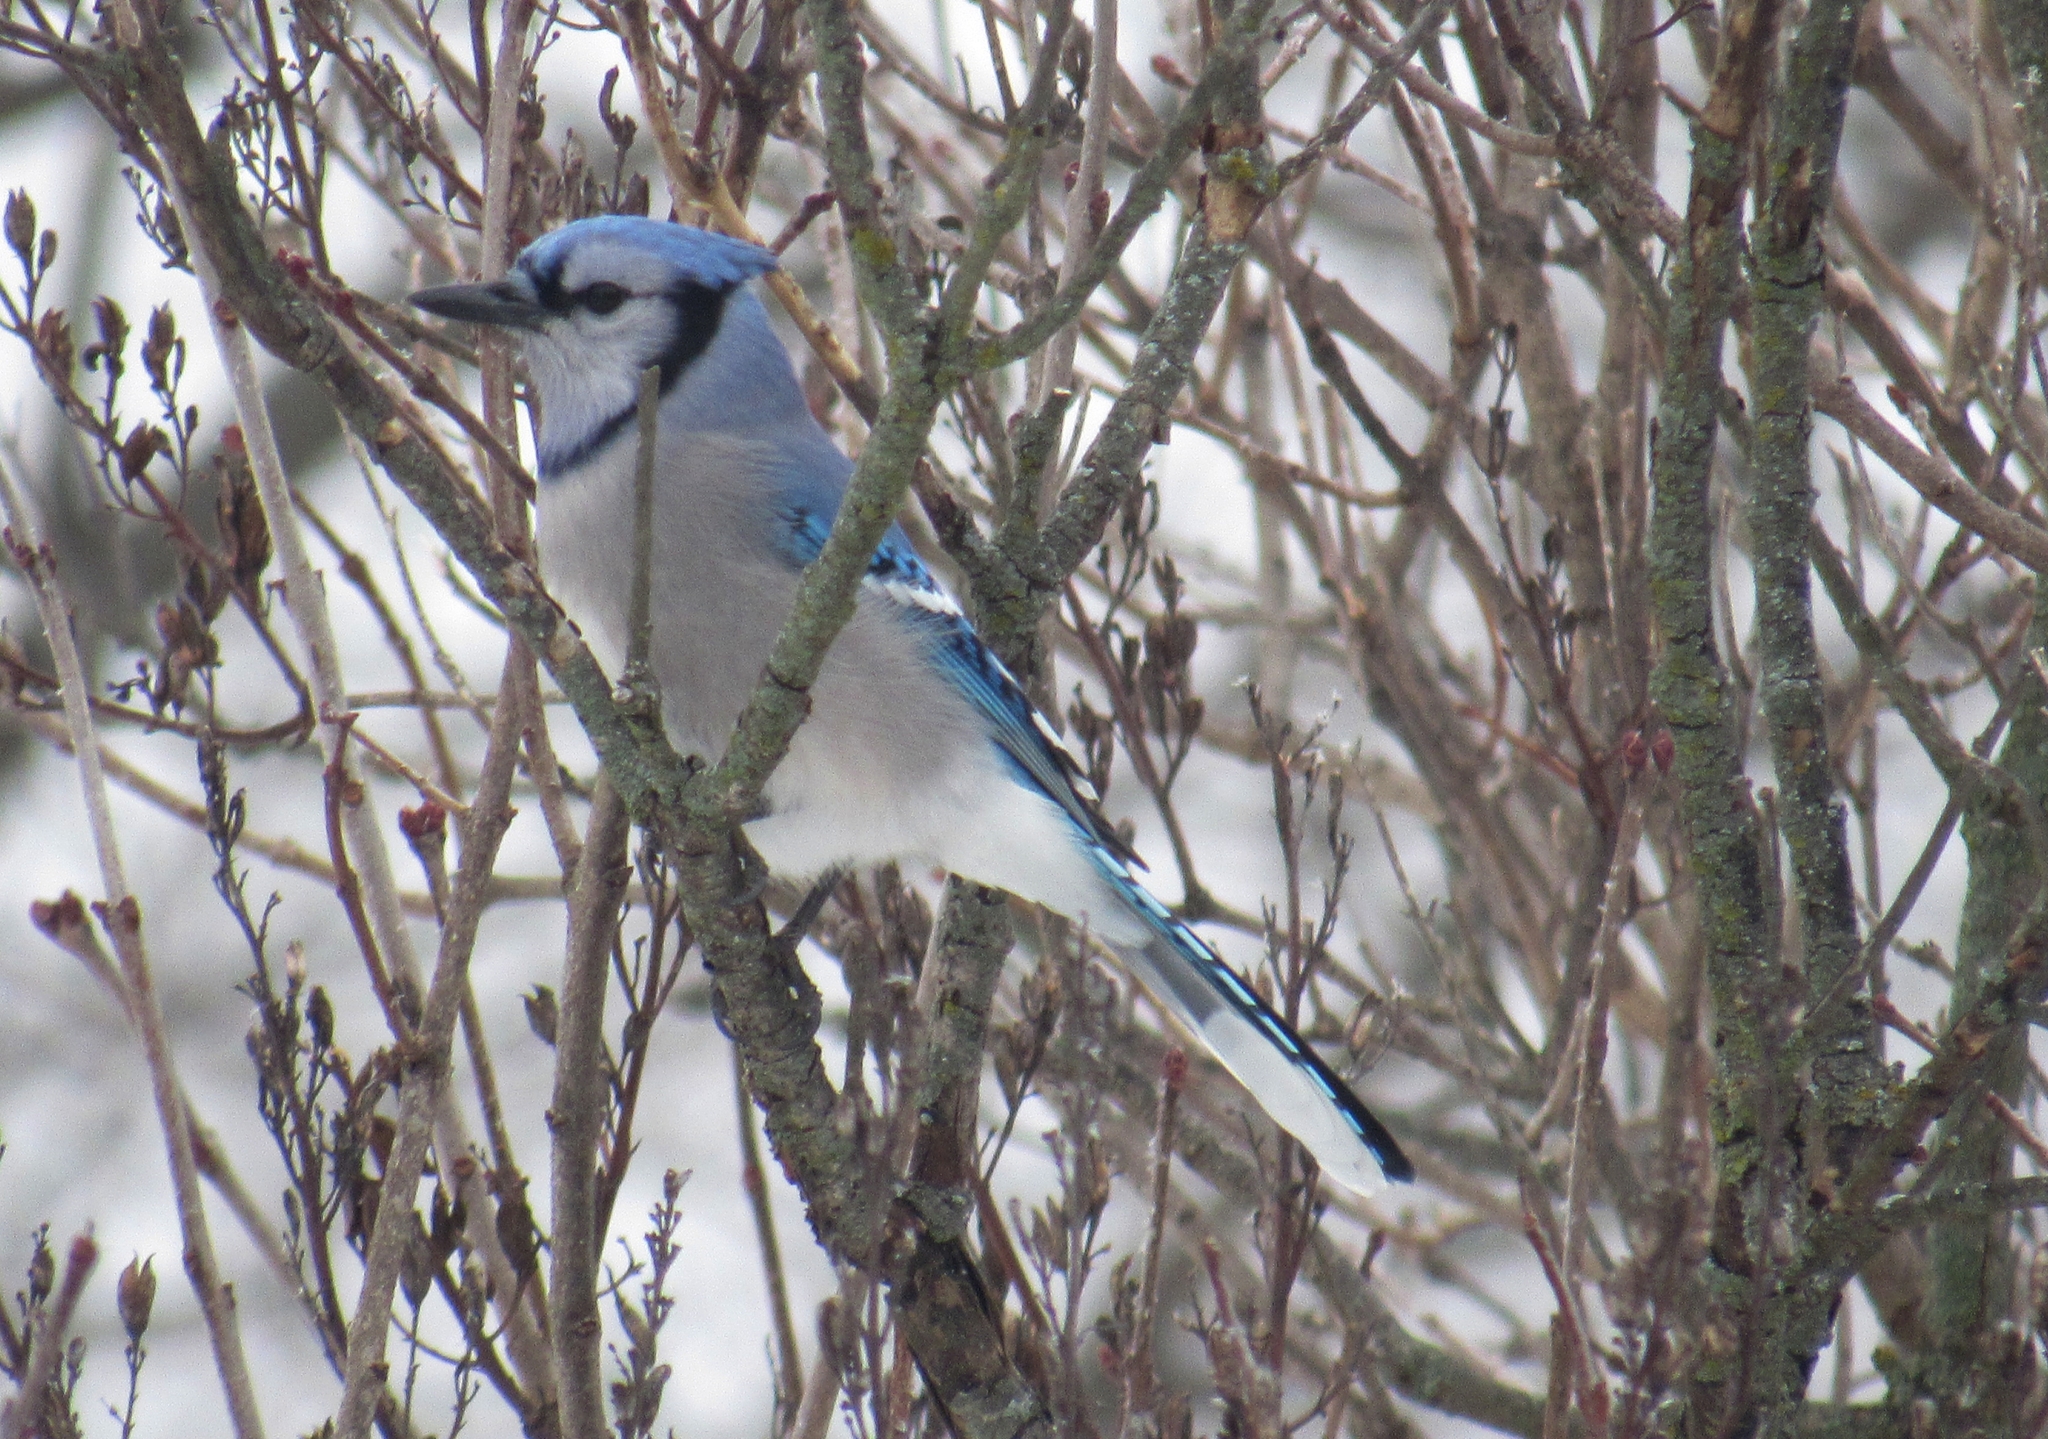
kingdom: Animalia
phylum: Chordata
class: Aves
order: Passeriformes
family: Corvidae
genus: Cyanocitta
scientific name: Cyanocitta cristata
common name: Blue jay
